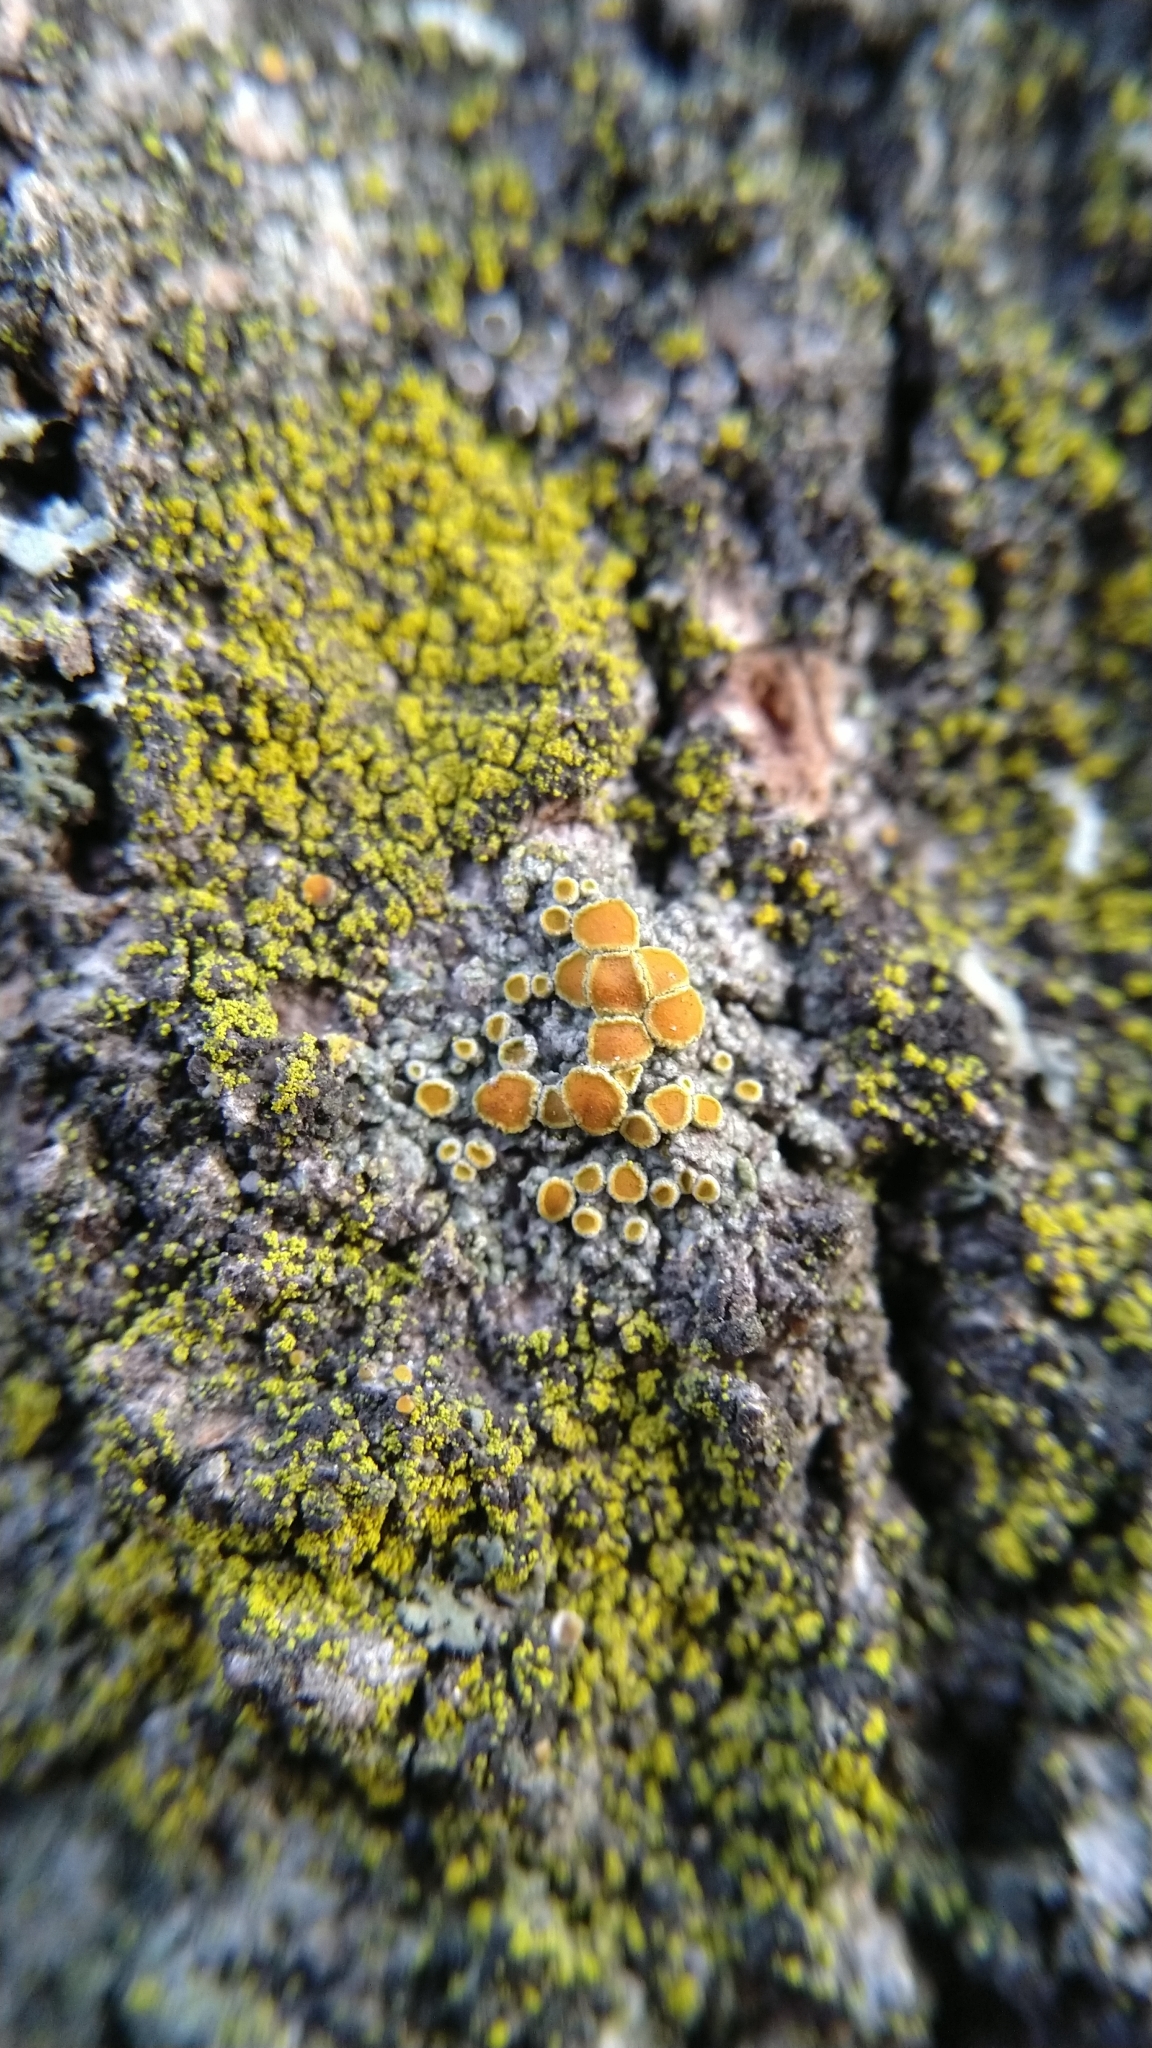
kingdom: Fungi
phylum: Ascomycota
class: Lecanoromycetes
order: Teloschistales
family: Teloschistaceae
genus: Caloplaca
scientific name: Caloplaca cerina
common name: Gray-rimmed firedot lichen
